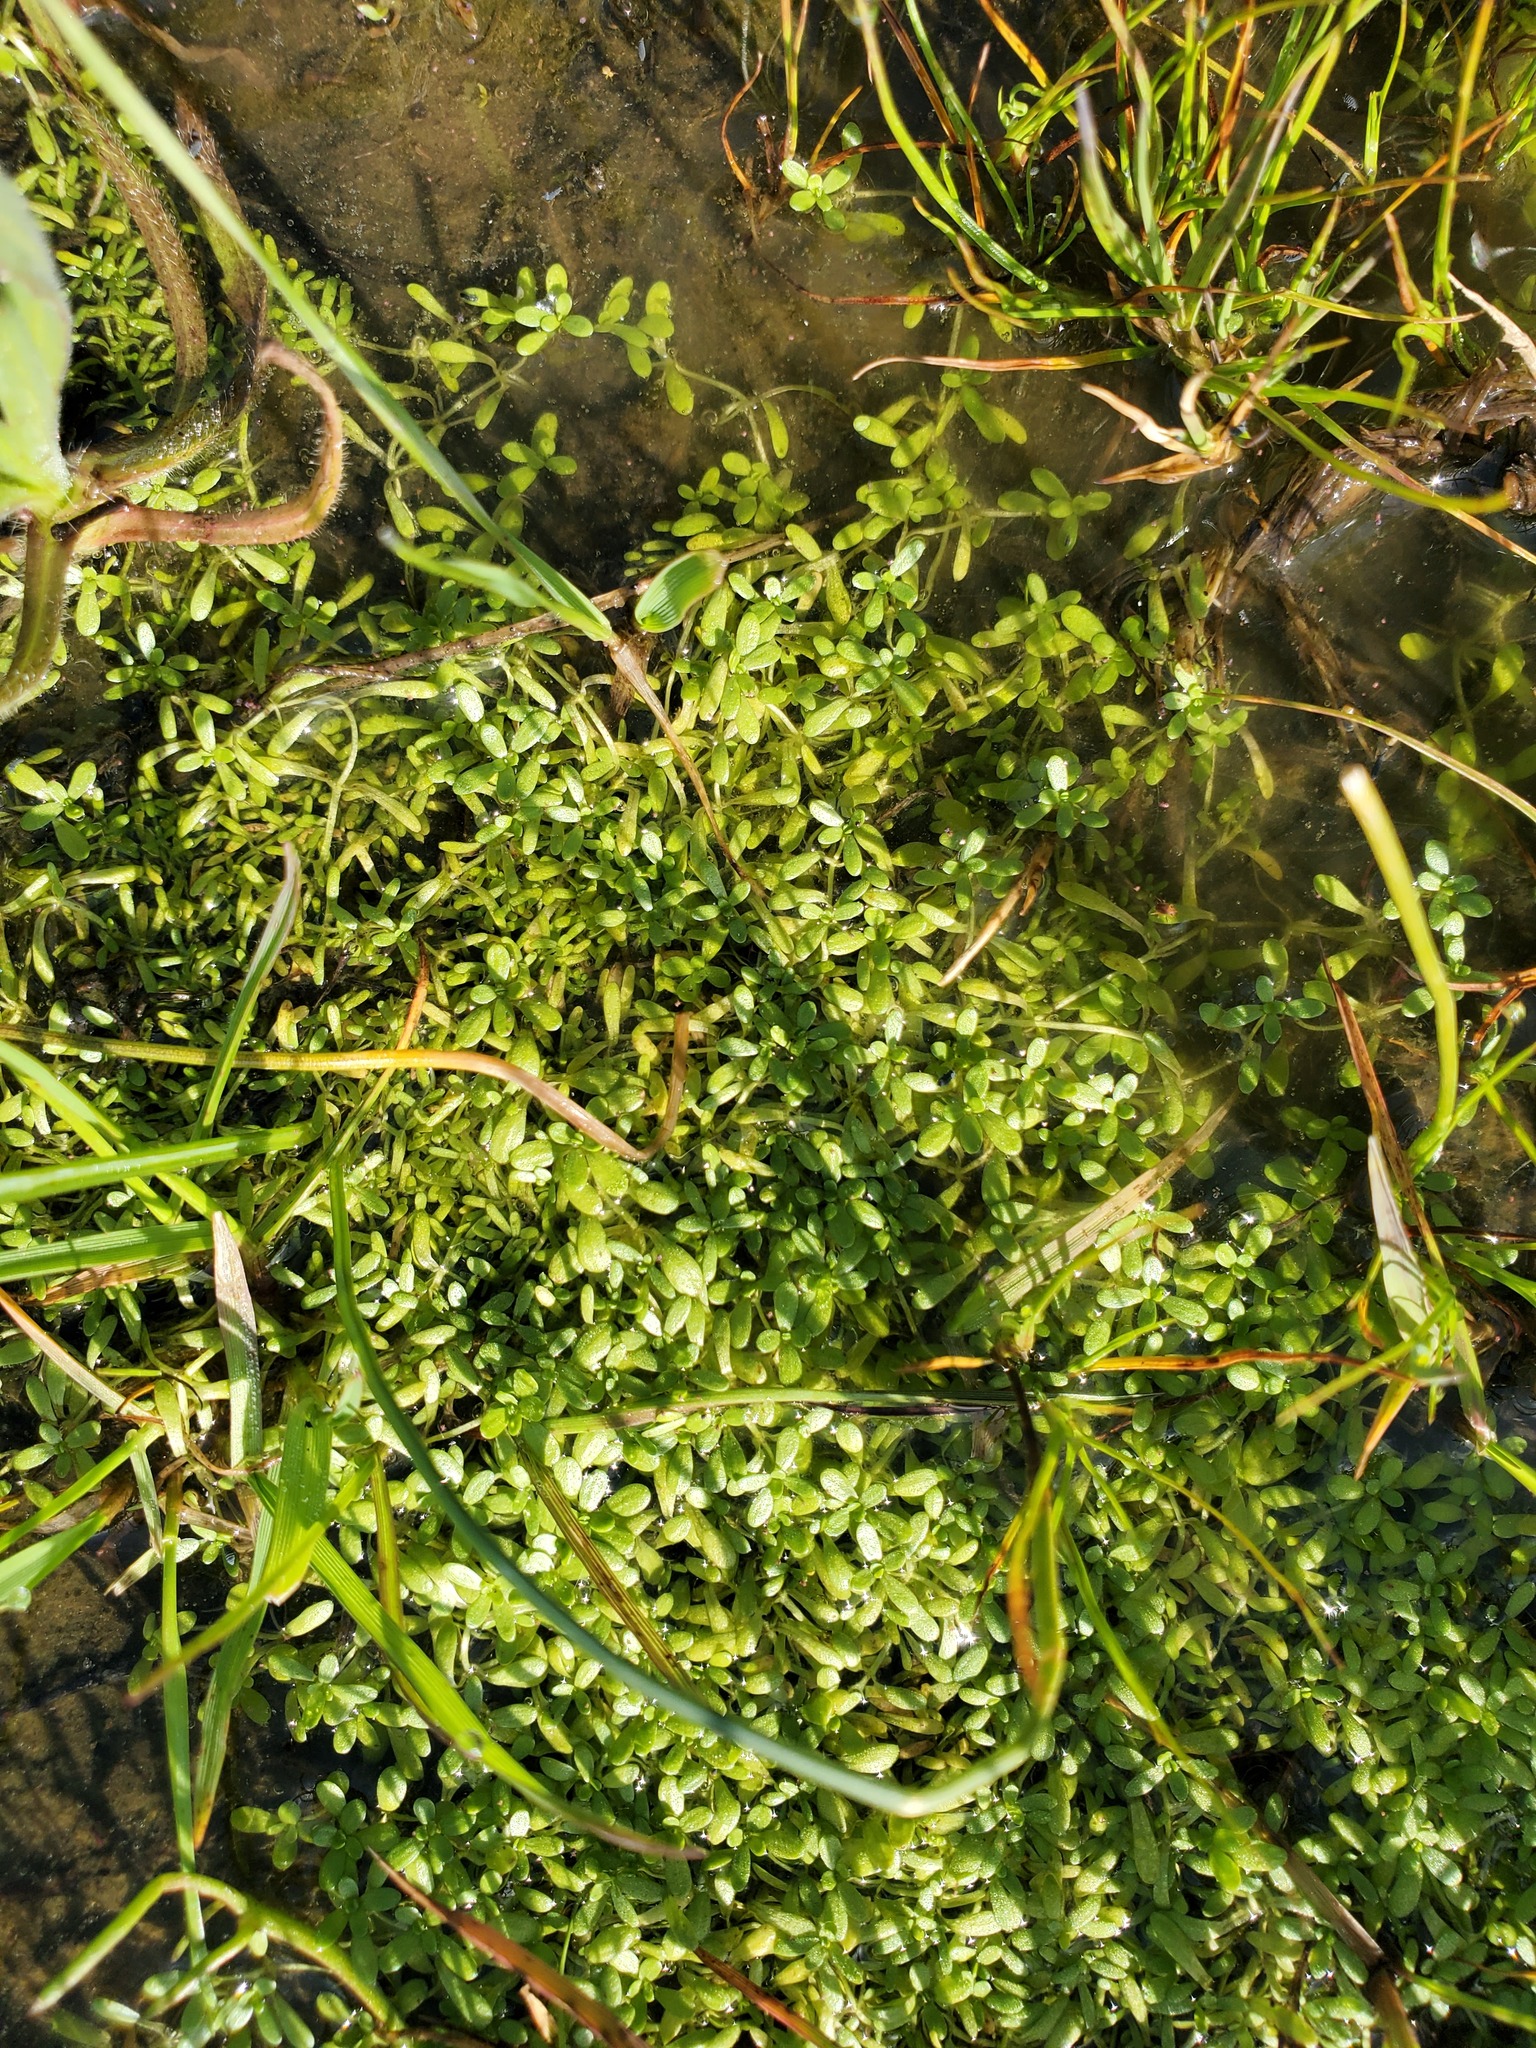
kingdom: Plantae
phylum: Tracheophyta
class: Magnoliopsida
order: Lamiales
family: Plantaginaceae
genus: Callitriche
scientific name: Callitriche marginata
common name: Winged water-starwort
